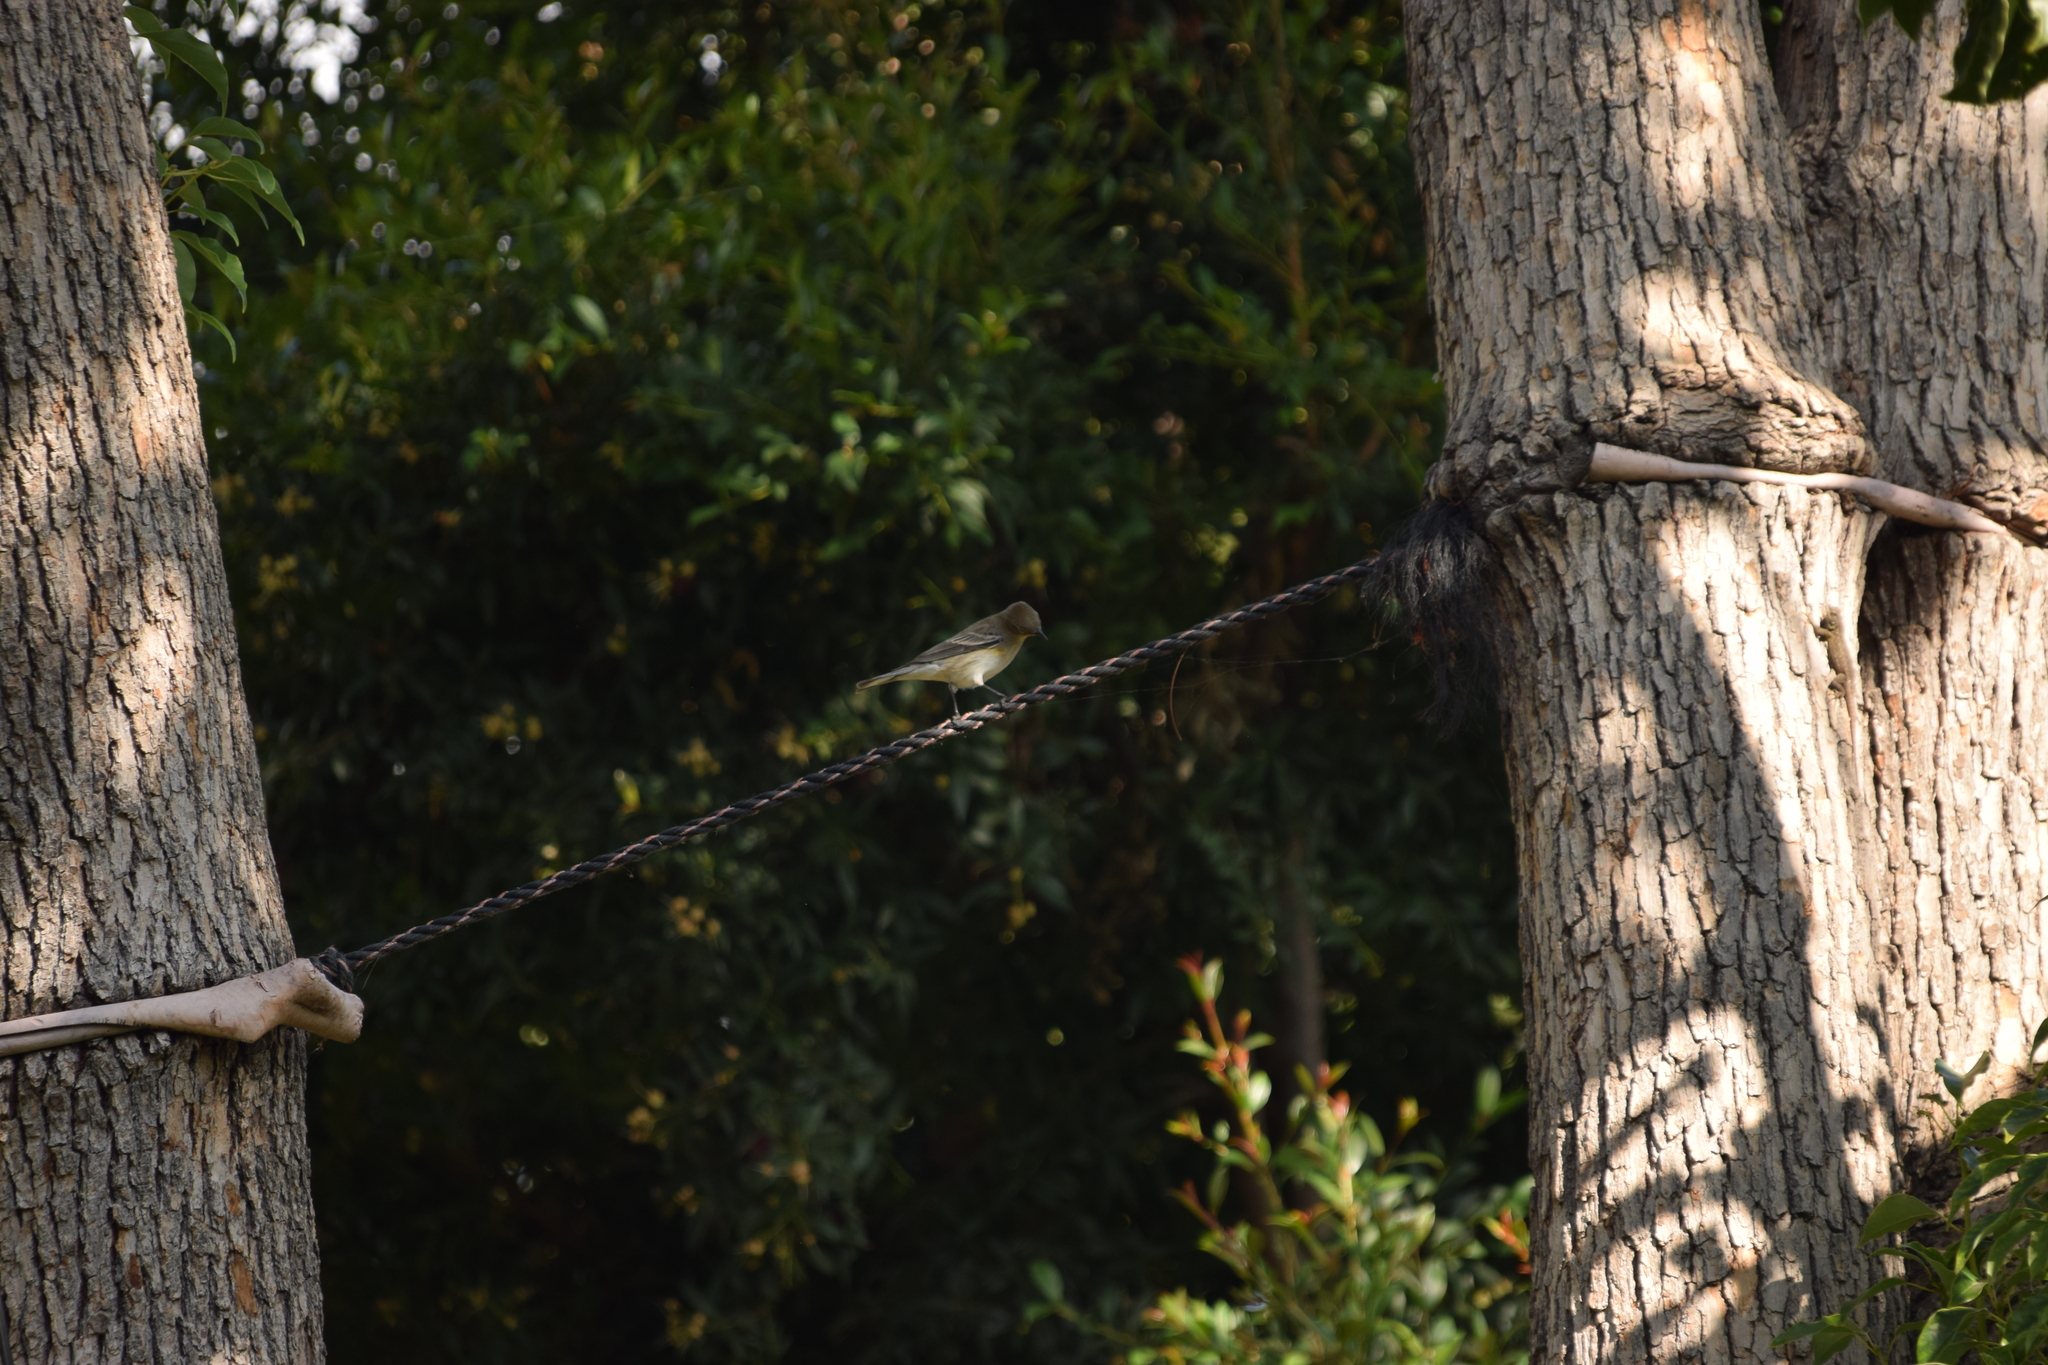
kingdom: Animalia
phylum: Chordata
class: Aves
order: Passeriformes
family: Parulidae
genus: Setophaga
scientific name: Setophaga coronata
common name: Myrtle warbler
